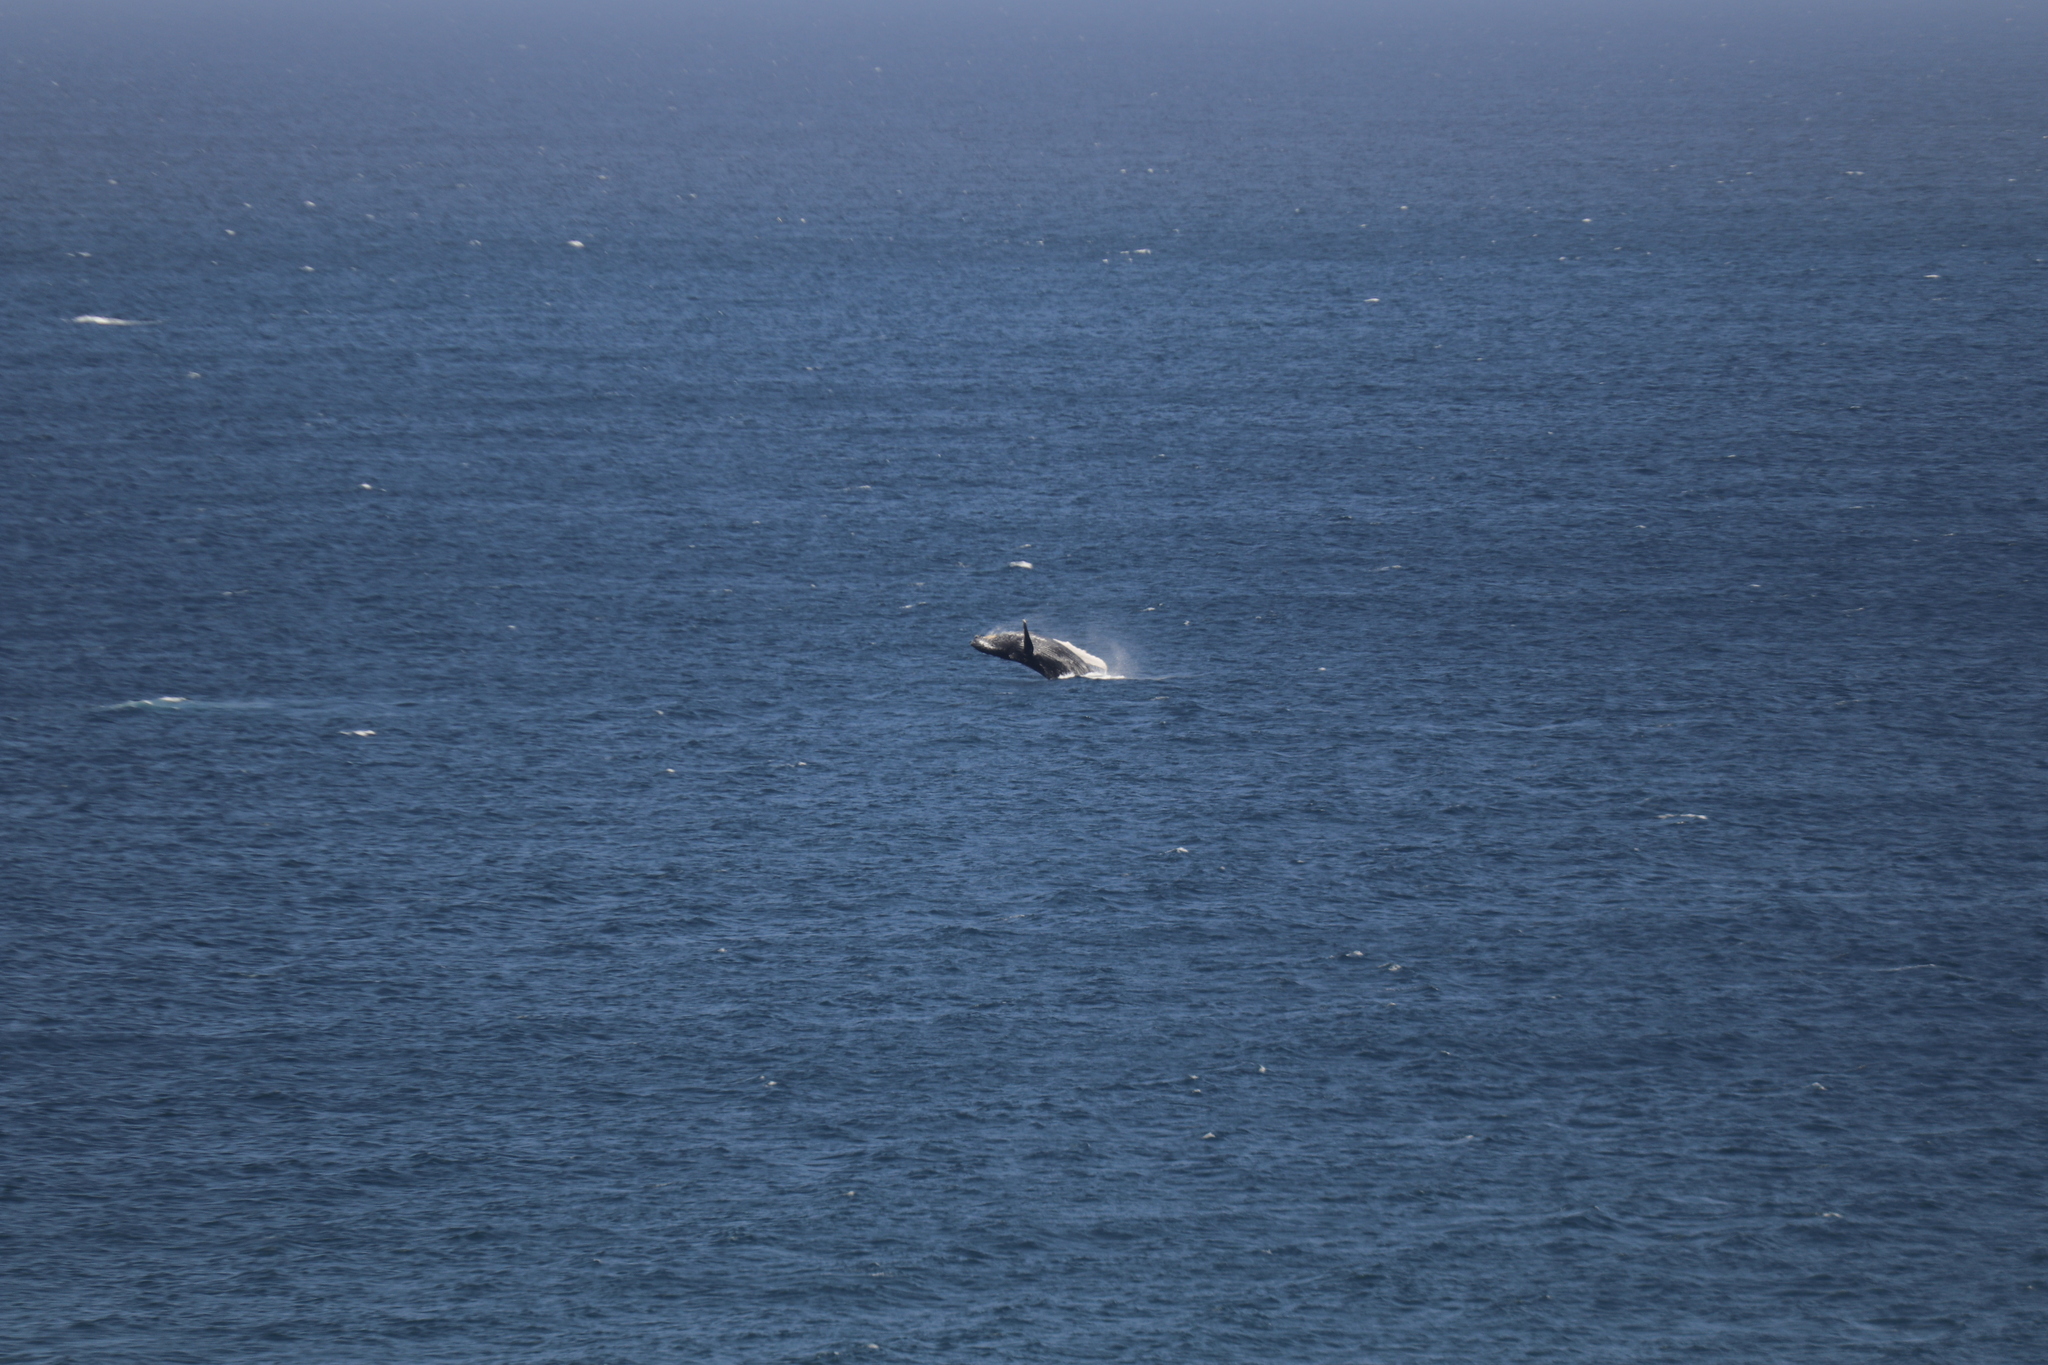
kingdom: Animalia
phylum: Chordata
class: Mammalia
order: Cetacea
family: Balaenopteridae
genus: Megaptera
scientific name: Megaptera novaeangliae
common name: Humpback whale
